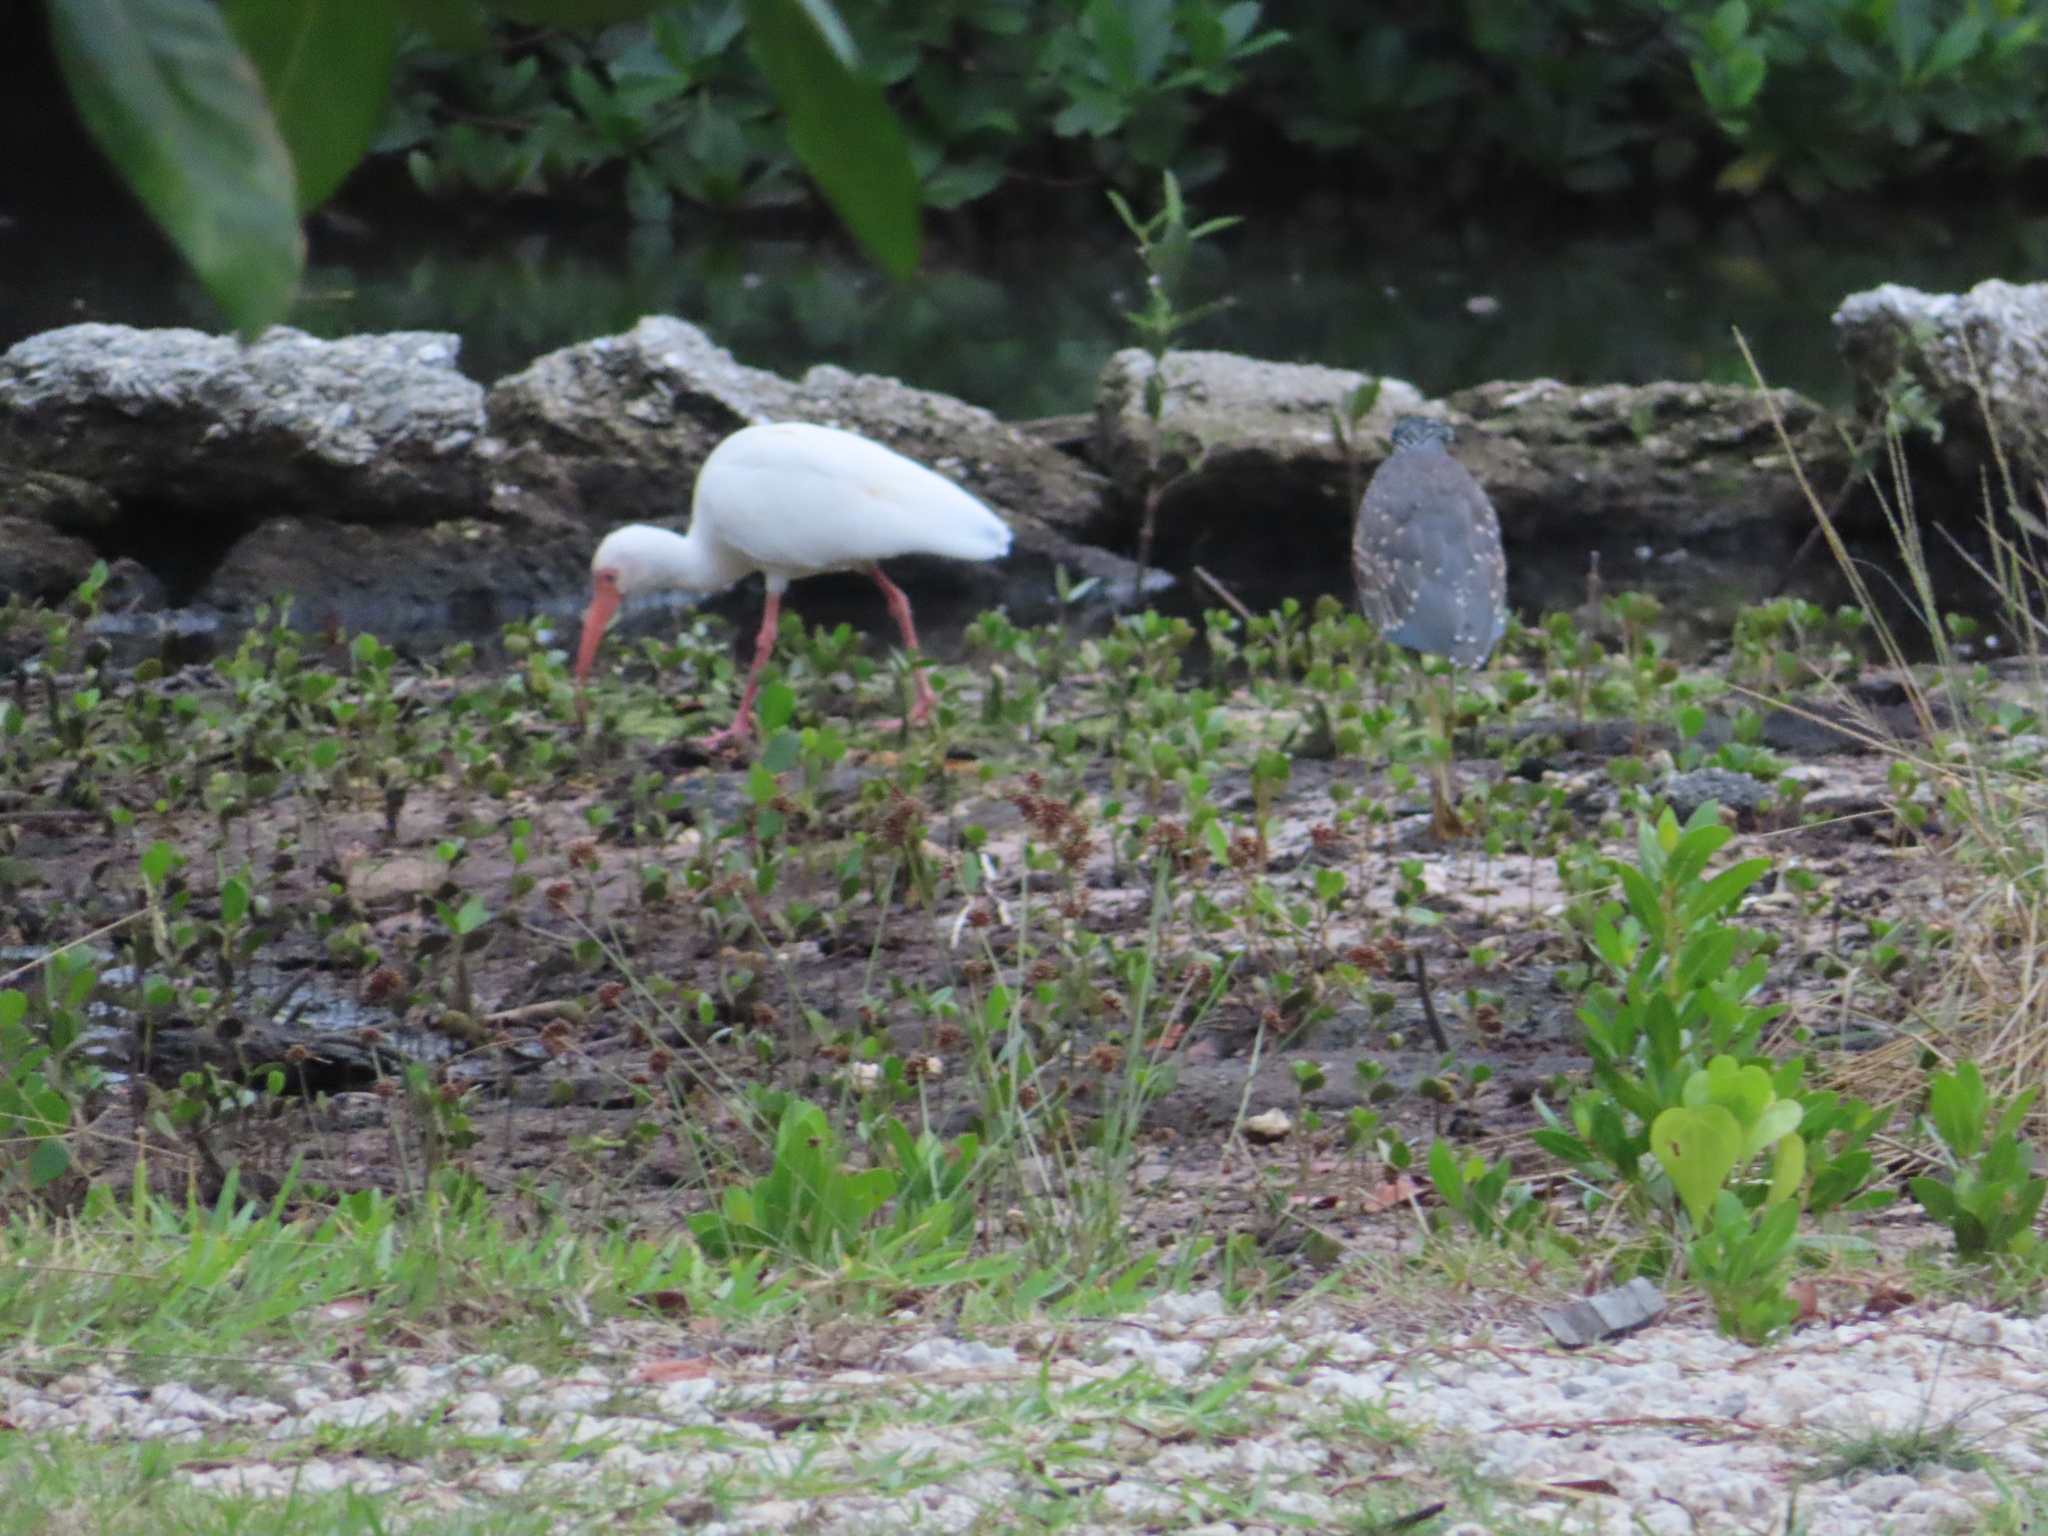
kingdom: Animalia
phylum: Chordata
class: Aves
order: Pelecaniformes
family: Threskiornithidae
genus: Eudocimus
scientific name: Eudocimus albus
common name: White ibis
